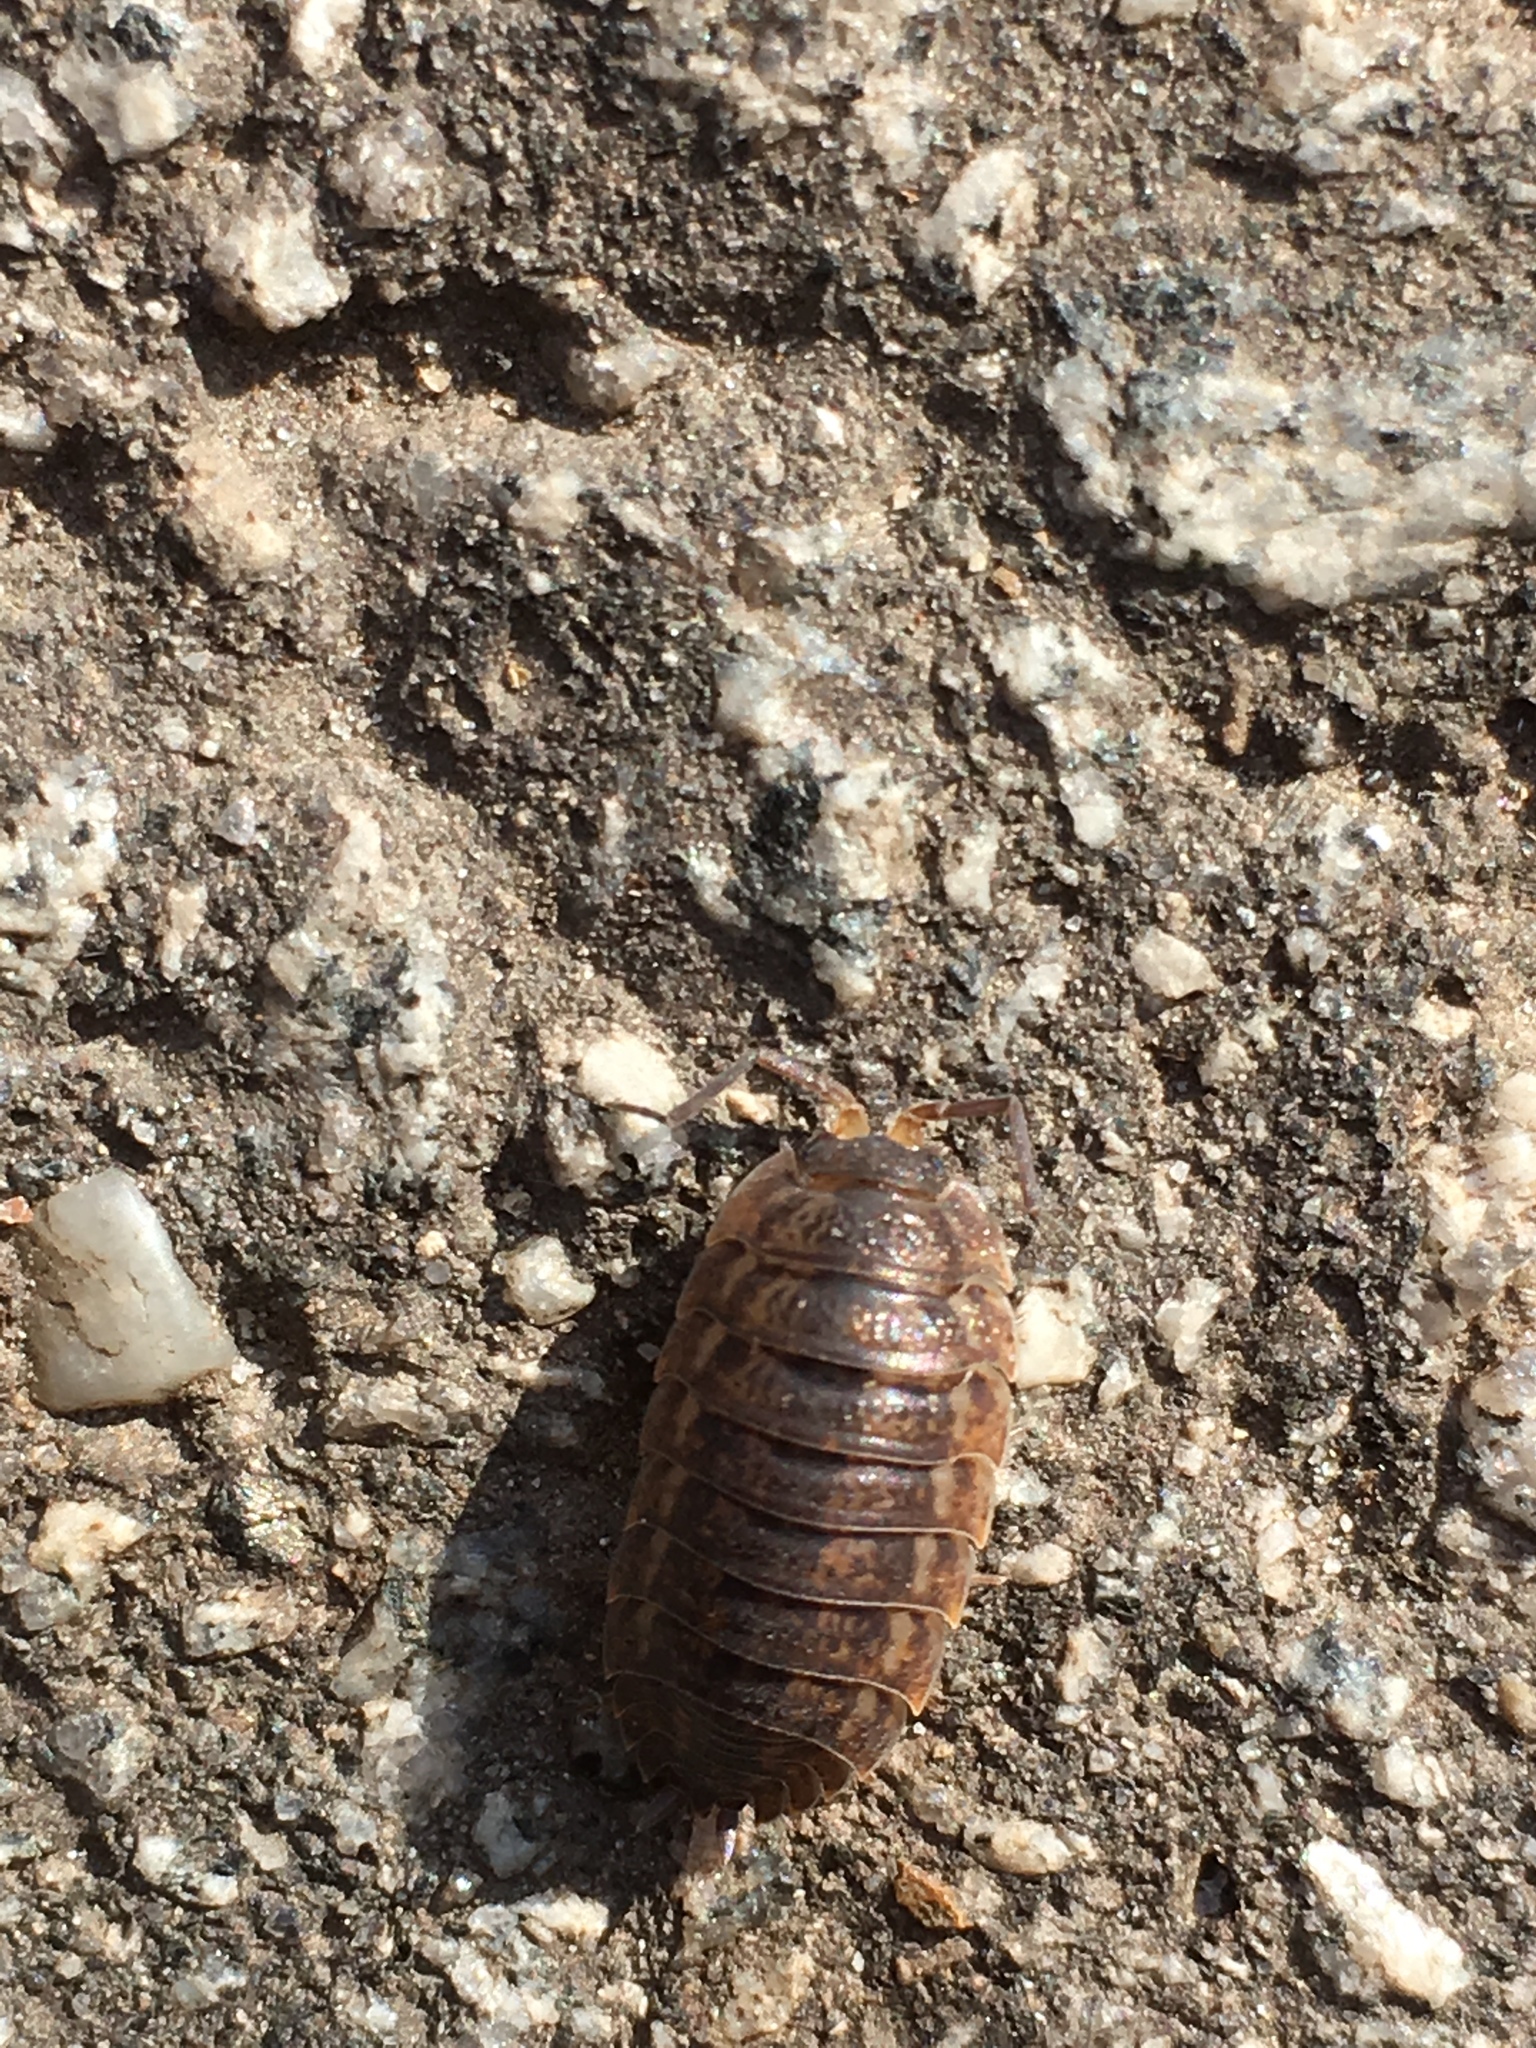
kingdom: Animalia
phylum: Arthropoda
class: Malacostraca
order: Isopoda
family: Trachelipodidae
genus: Trachelipus
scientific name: Trachelipus rathkii
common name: Isopod
